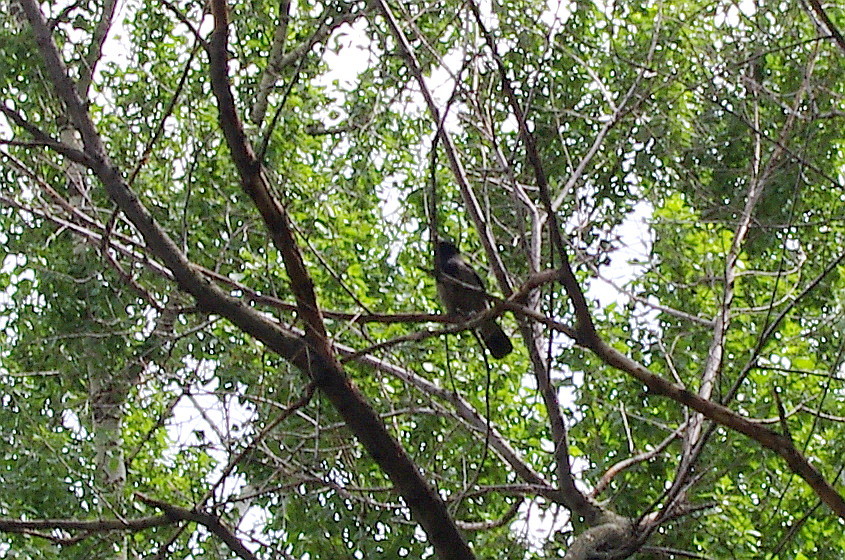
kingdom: Animalia
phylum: Chordata
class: Aves
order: Passeriformes
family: Corvidae
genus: Corvus
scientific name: Corvus cornix
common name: Hooded crow
